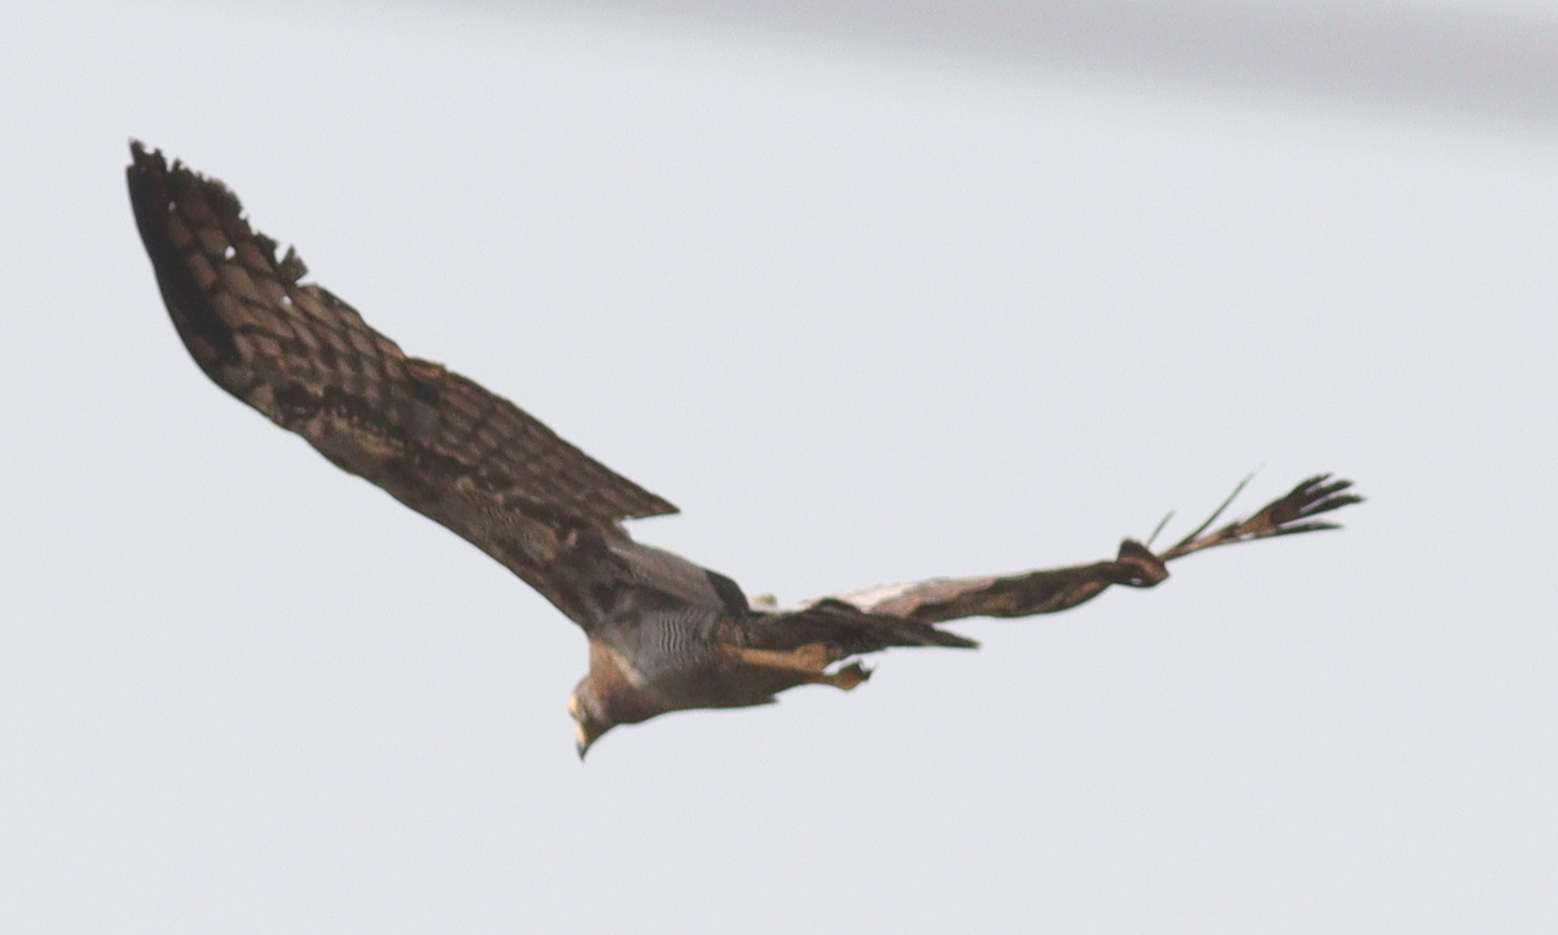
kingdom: Animalia
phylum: Chordata
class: Aves
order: Accipitriformes
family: Accipitridae
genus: Polyboroides
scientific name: Polyboroides typus
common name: African harrier-hawk
